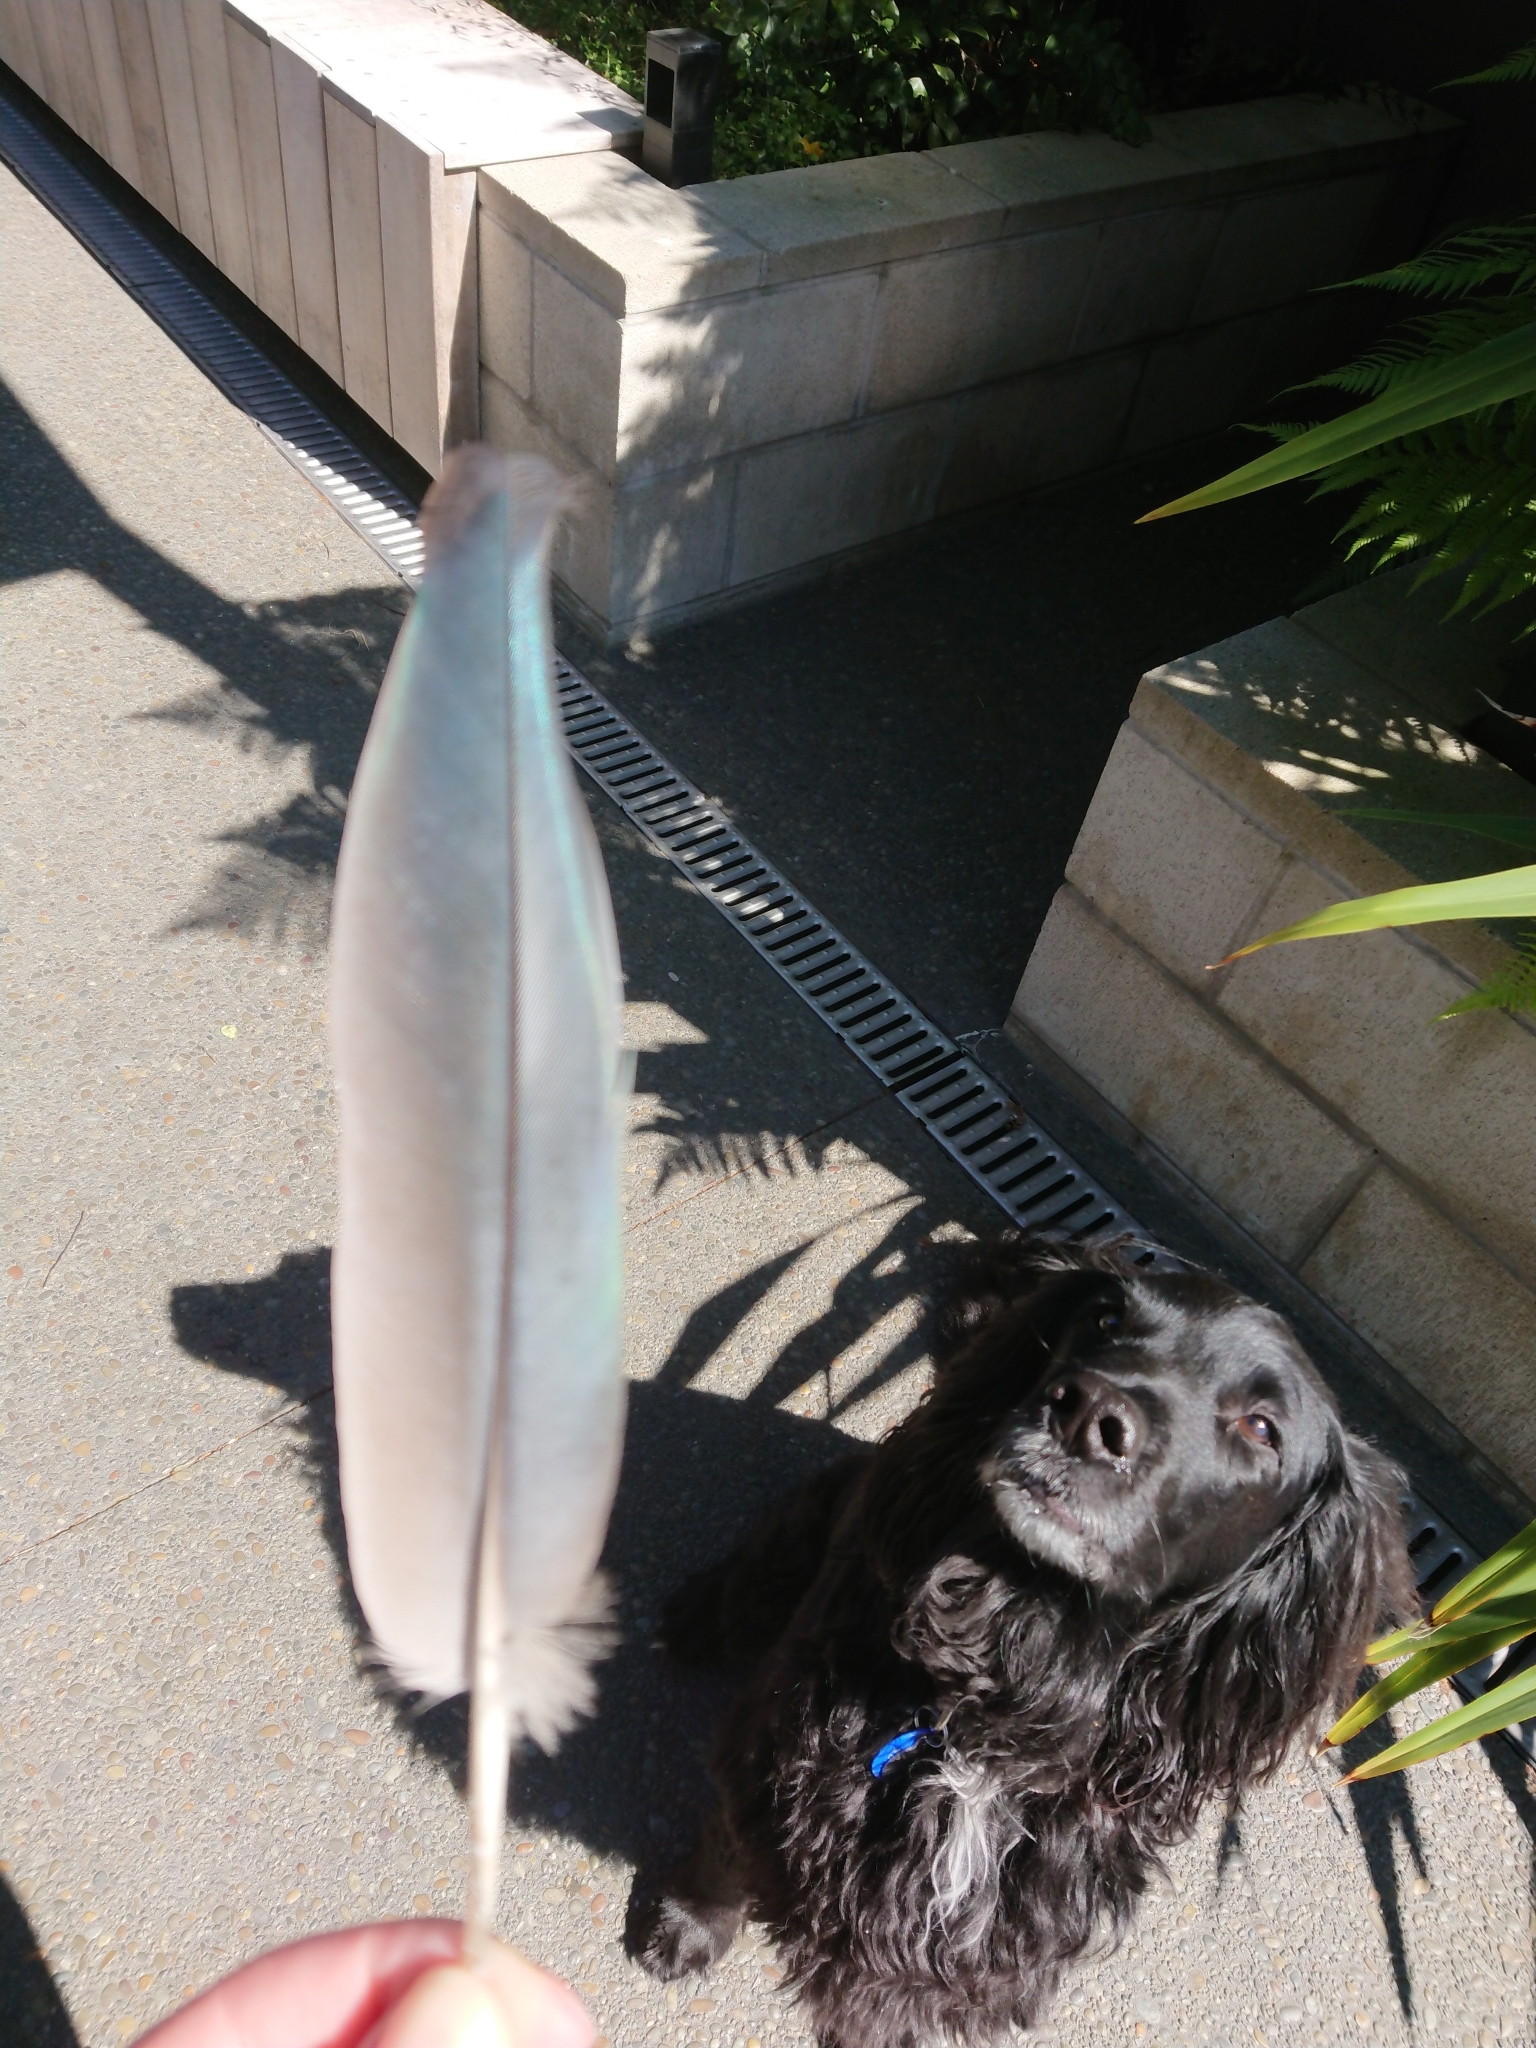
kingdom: Animalia
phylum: Chordata
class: Aves
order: Columbiformes
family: Columbidae
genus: Hemiphaga
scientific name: Hemiphaga novaeseelandiae
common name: New zealand pigeon
